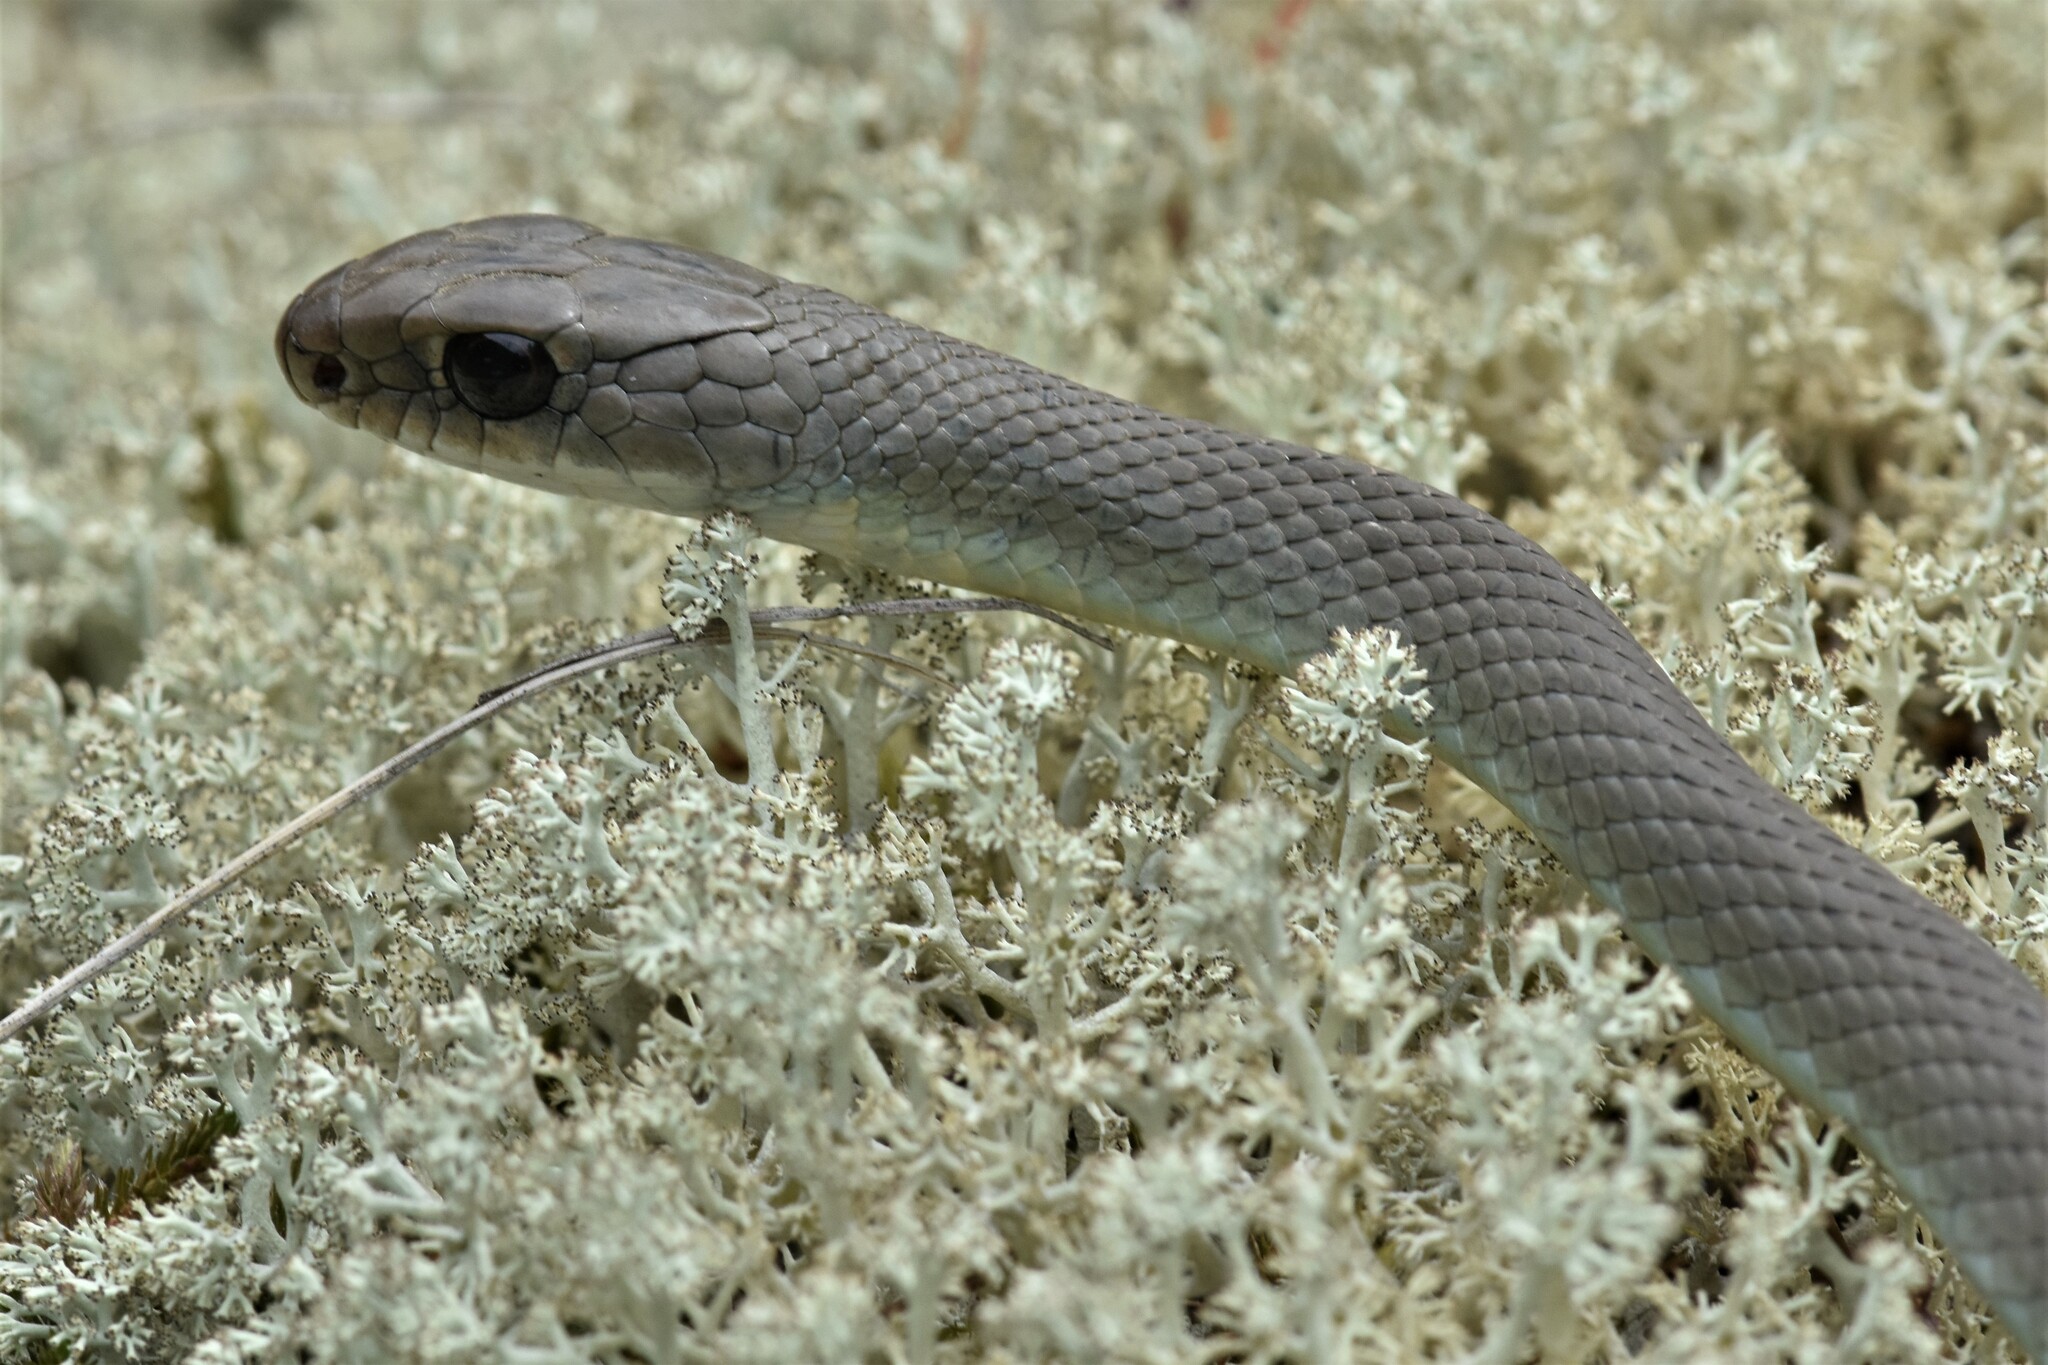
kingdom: Animalia
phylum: Chordata
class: Squamata
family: Colubridae
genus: Coluber
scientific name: Coluber constrictor
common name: Eastern racer
